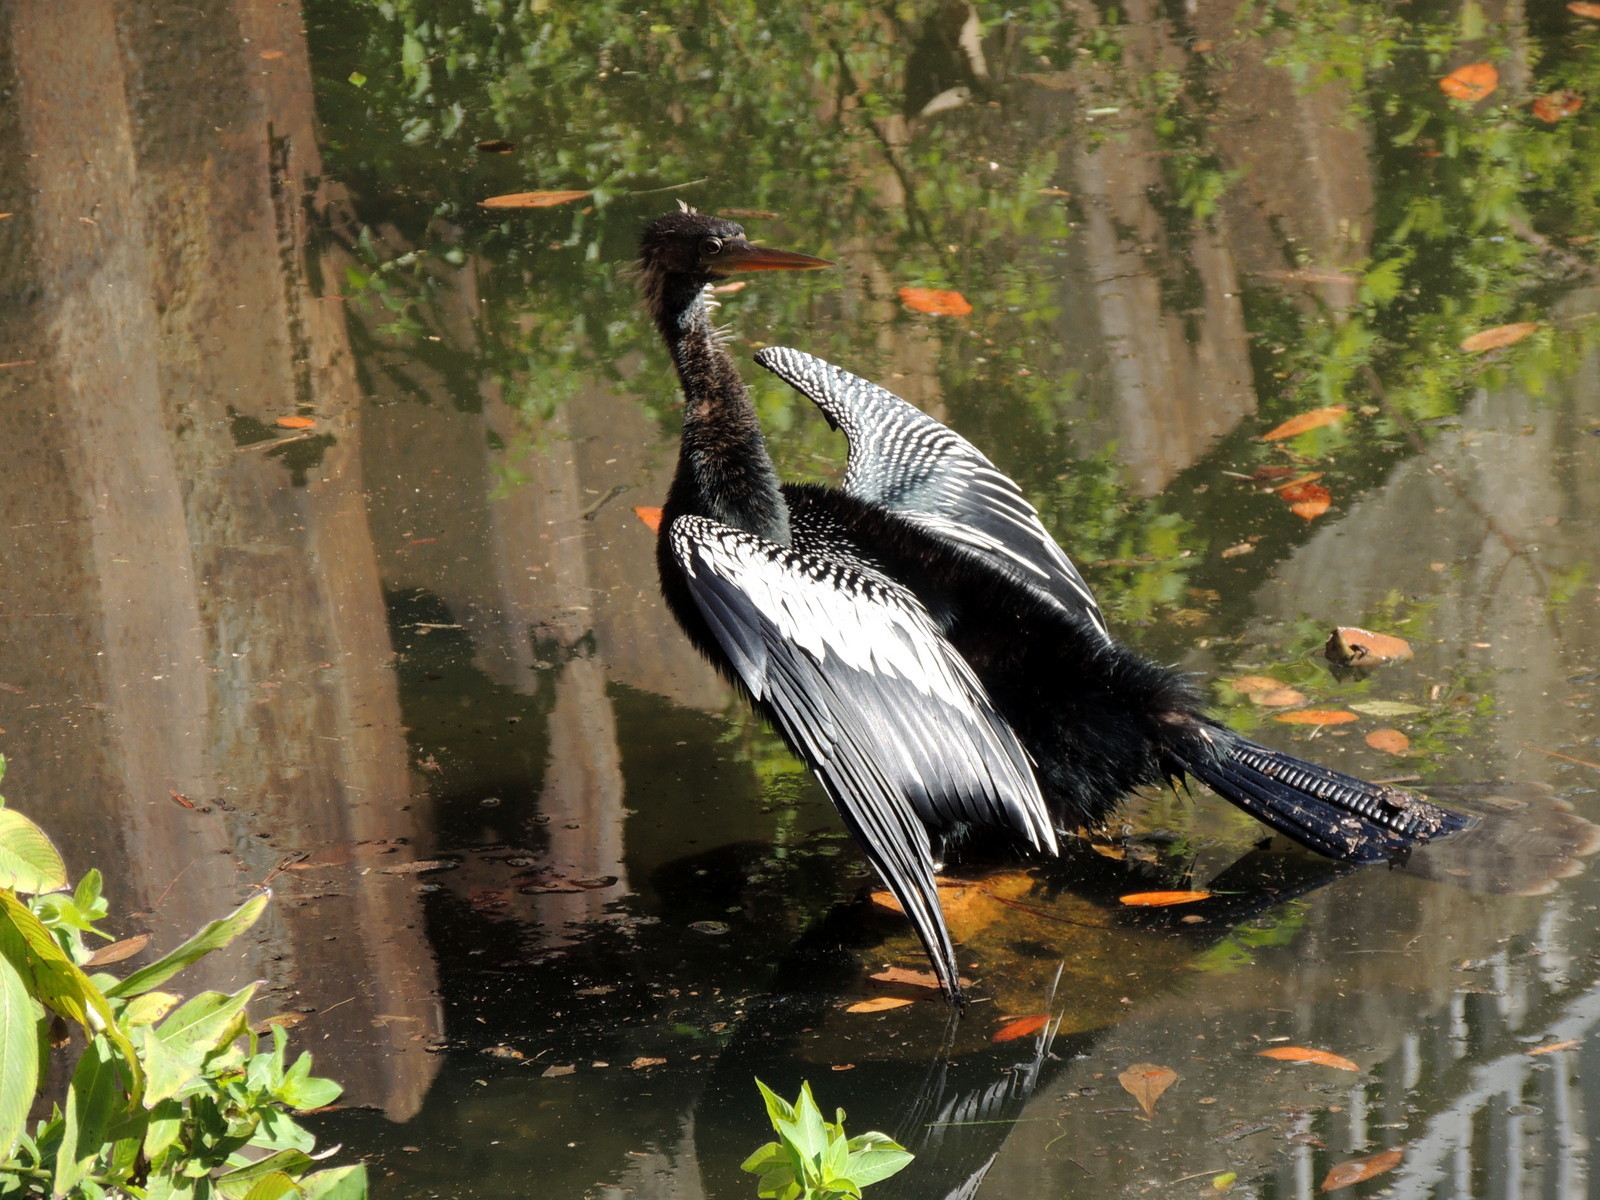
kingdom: Animalia
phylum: Chordata
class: Aves
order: Suliformes
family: Anhingidae
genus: Anhinga
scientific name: Anhinga anhinga
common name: Anhinga
